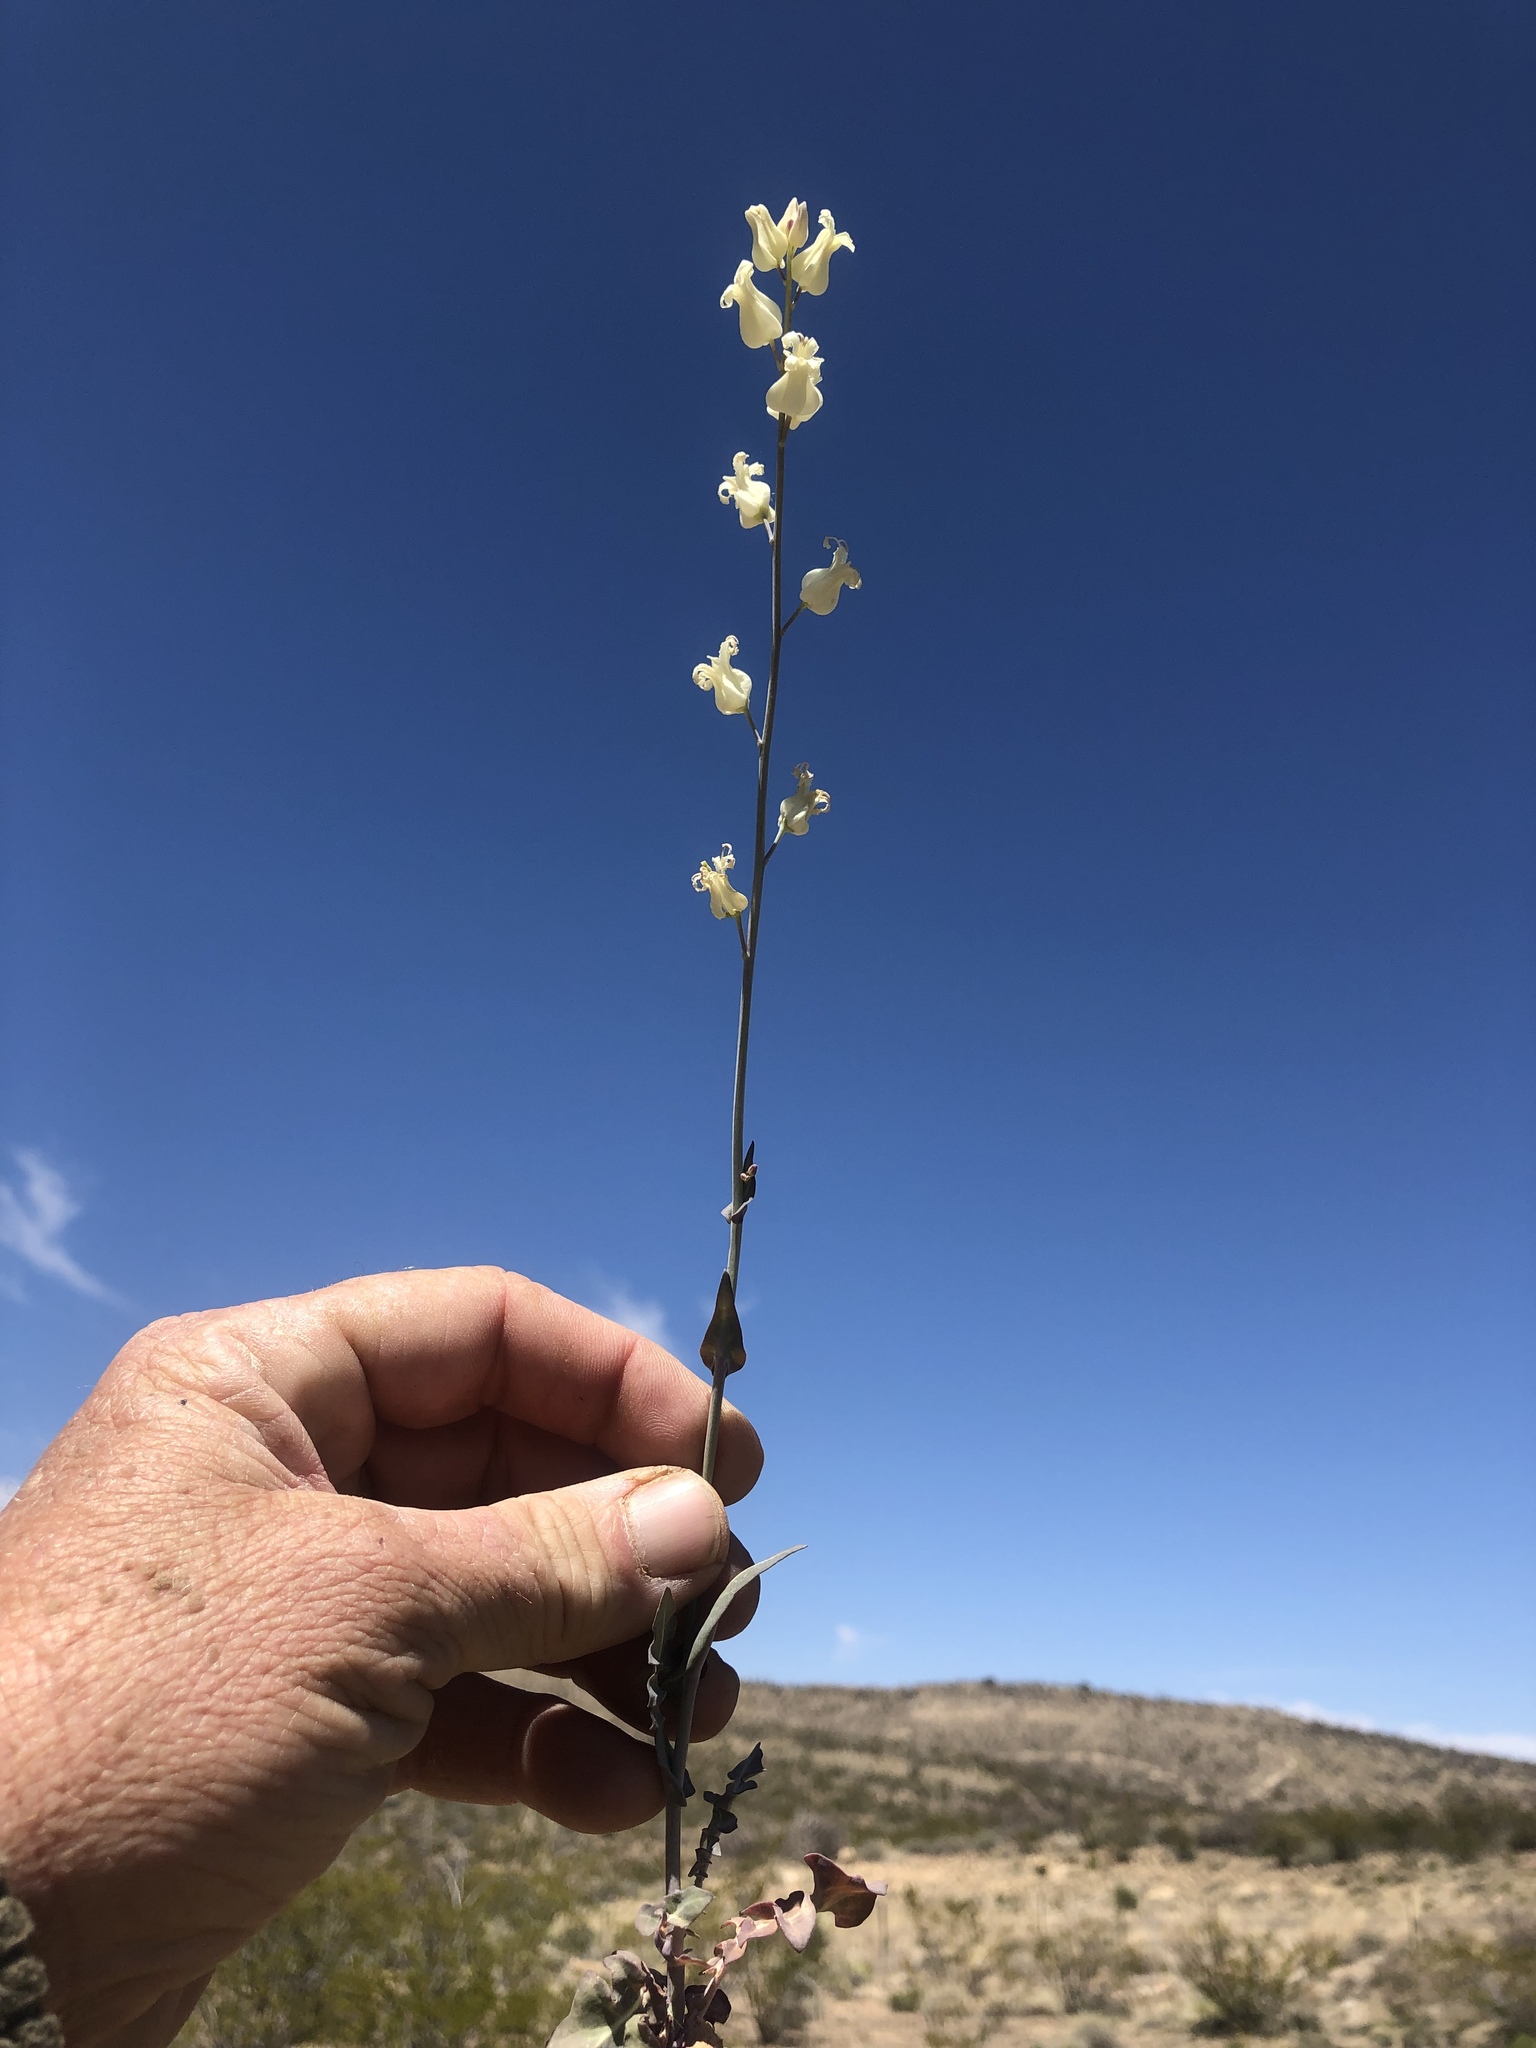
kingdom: Plantae
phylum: Tracheophyta
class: Magnoliopsida
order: Brassicales
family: Brassicaceae
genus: Streptanthus
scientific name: Streptanthus carinatus
